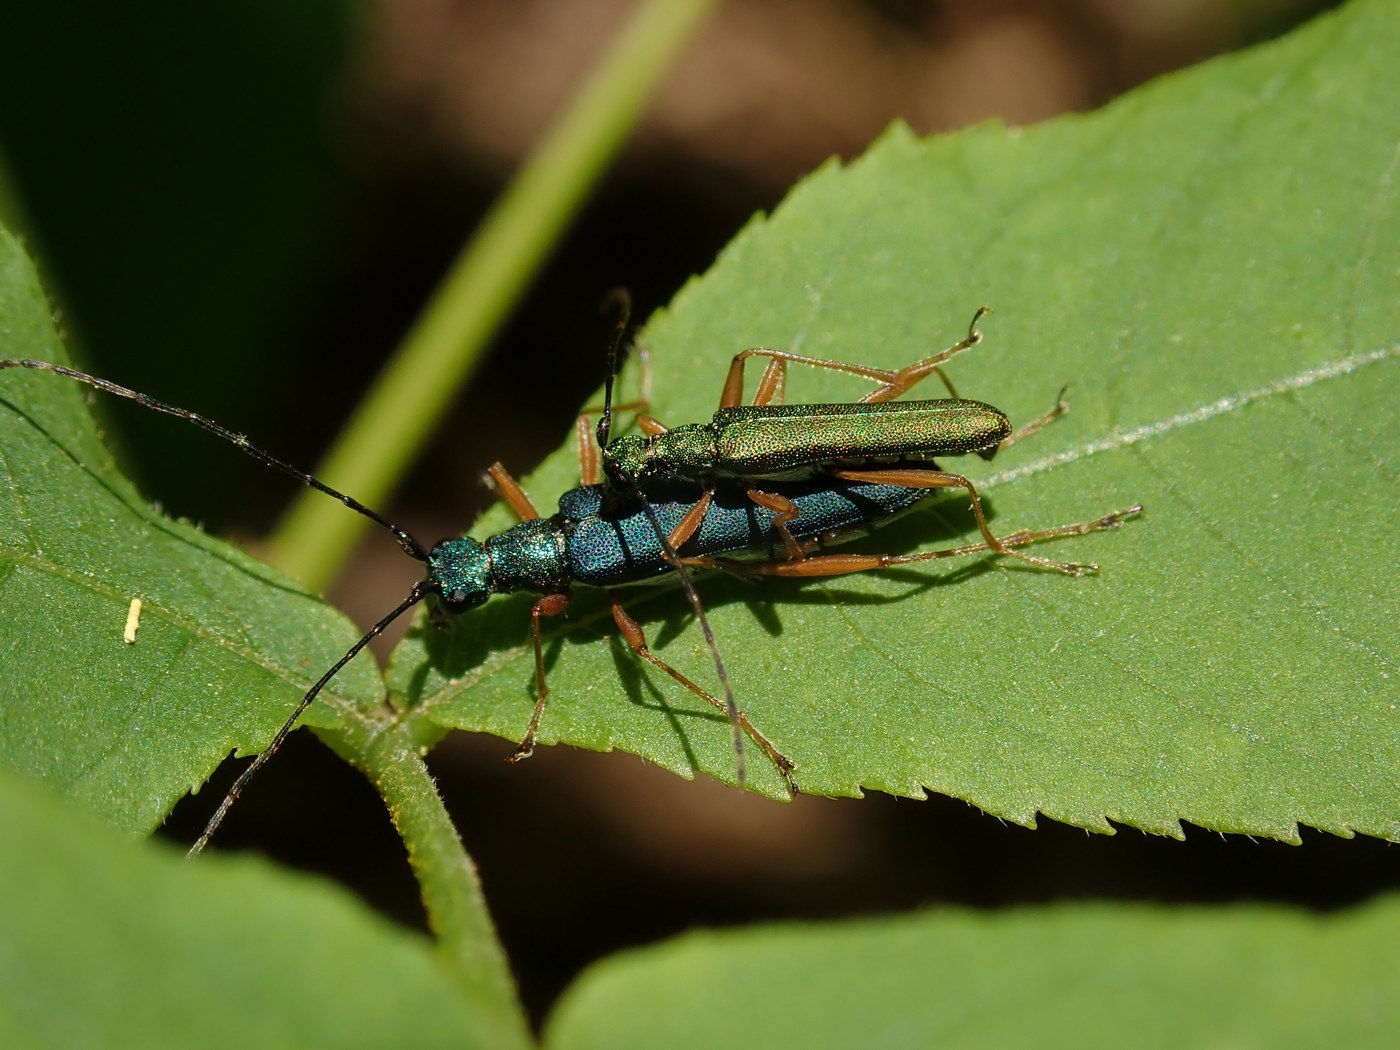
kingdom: Animalia
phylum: Arthropoda
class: Insecta
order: Coleoptera
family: Cerambycidae
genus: Encyclops
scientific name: Encyclops caerulea
